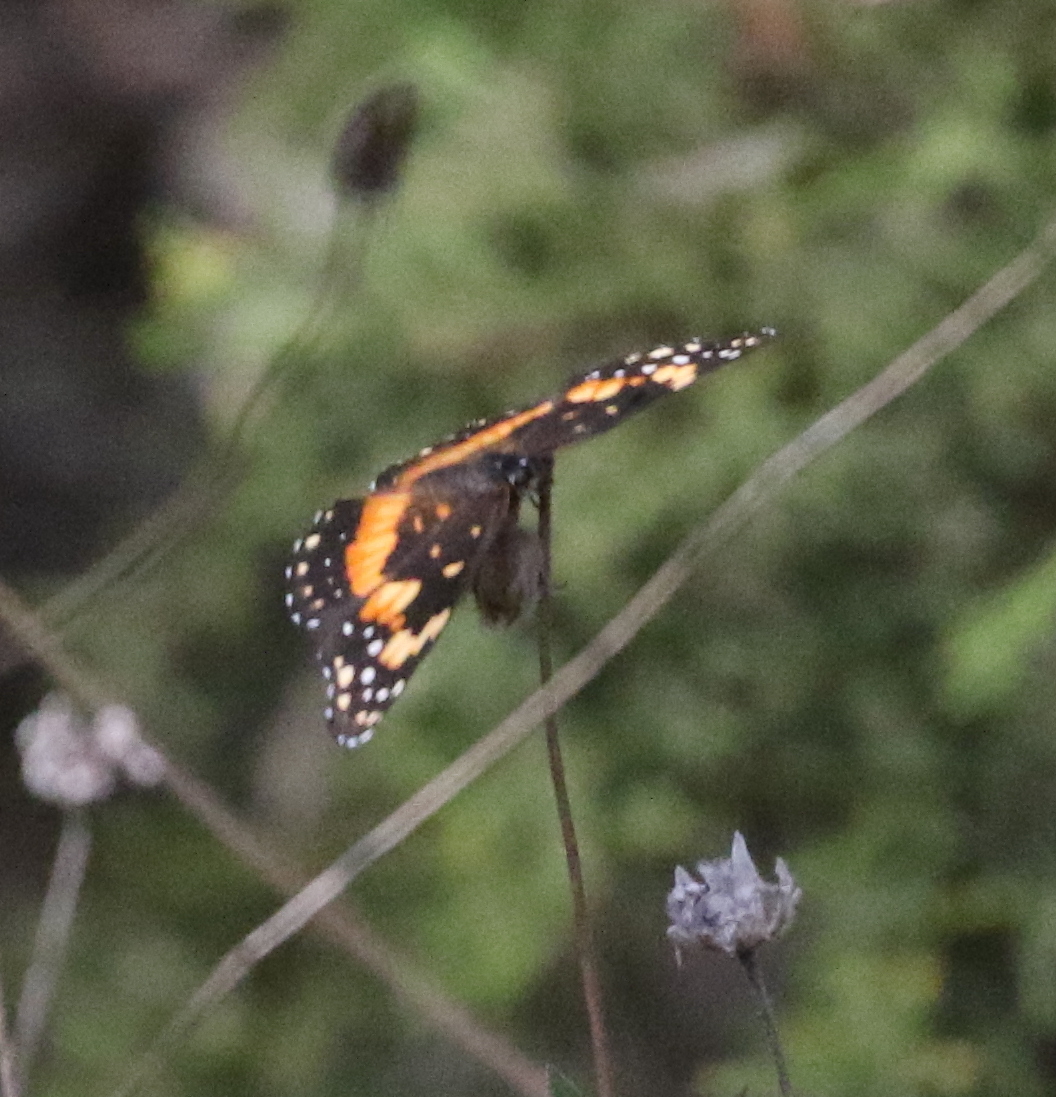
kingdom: Animalia
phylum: Arthropoda
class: Insecta
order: Lepidoptera
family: Nymphalidae
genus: Chlosyne
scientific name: Chlosyne lacinia
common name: Bordered patch
